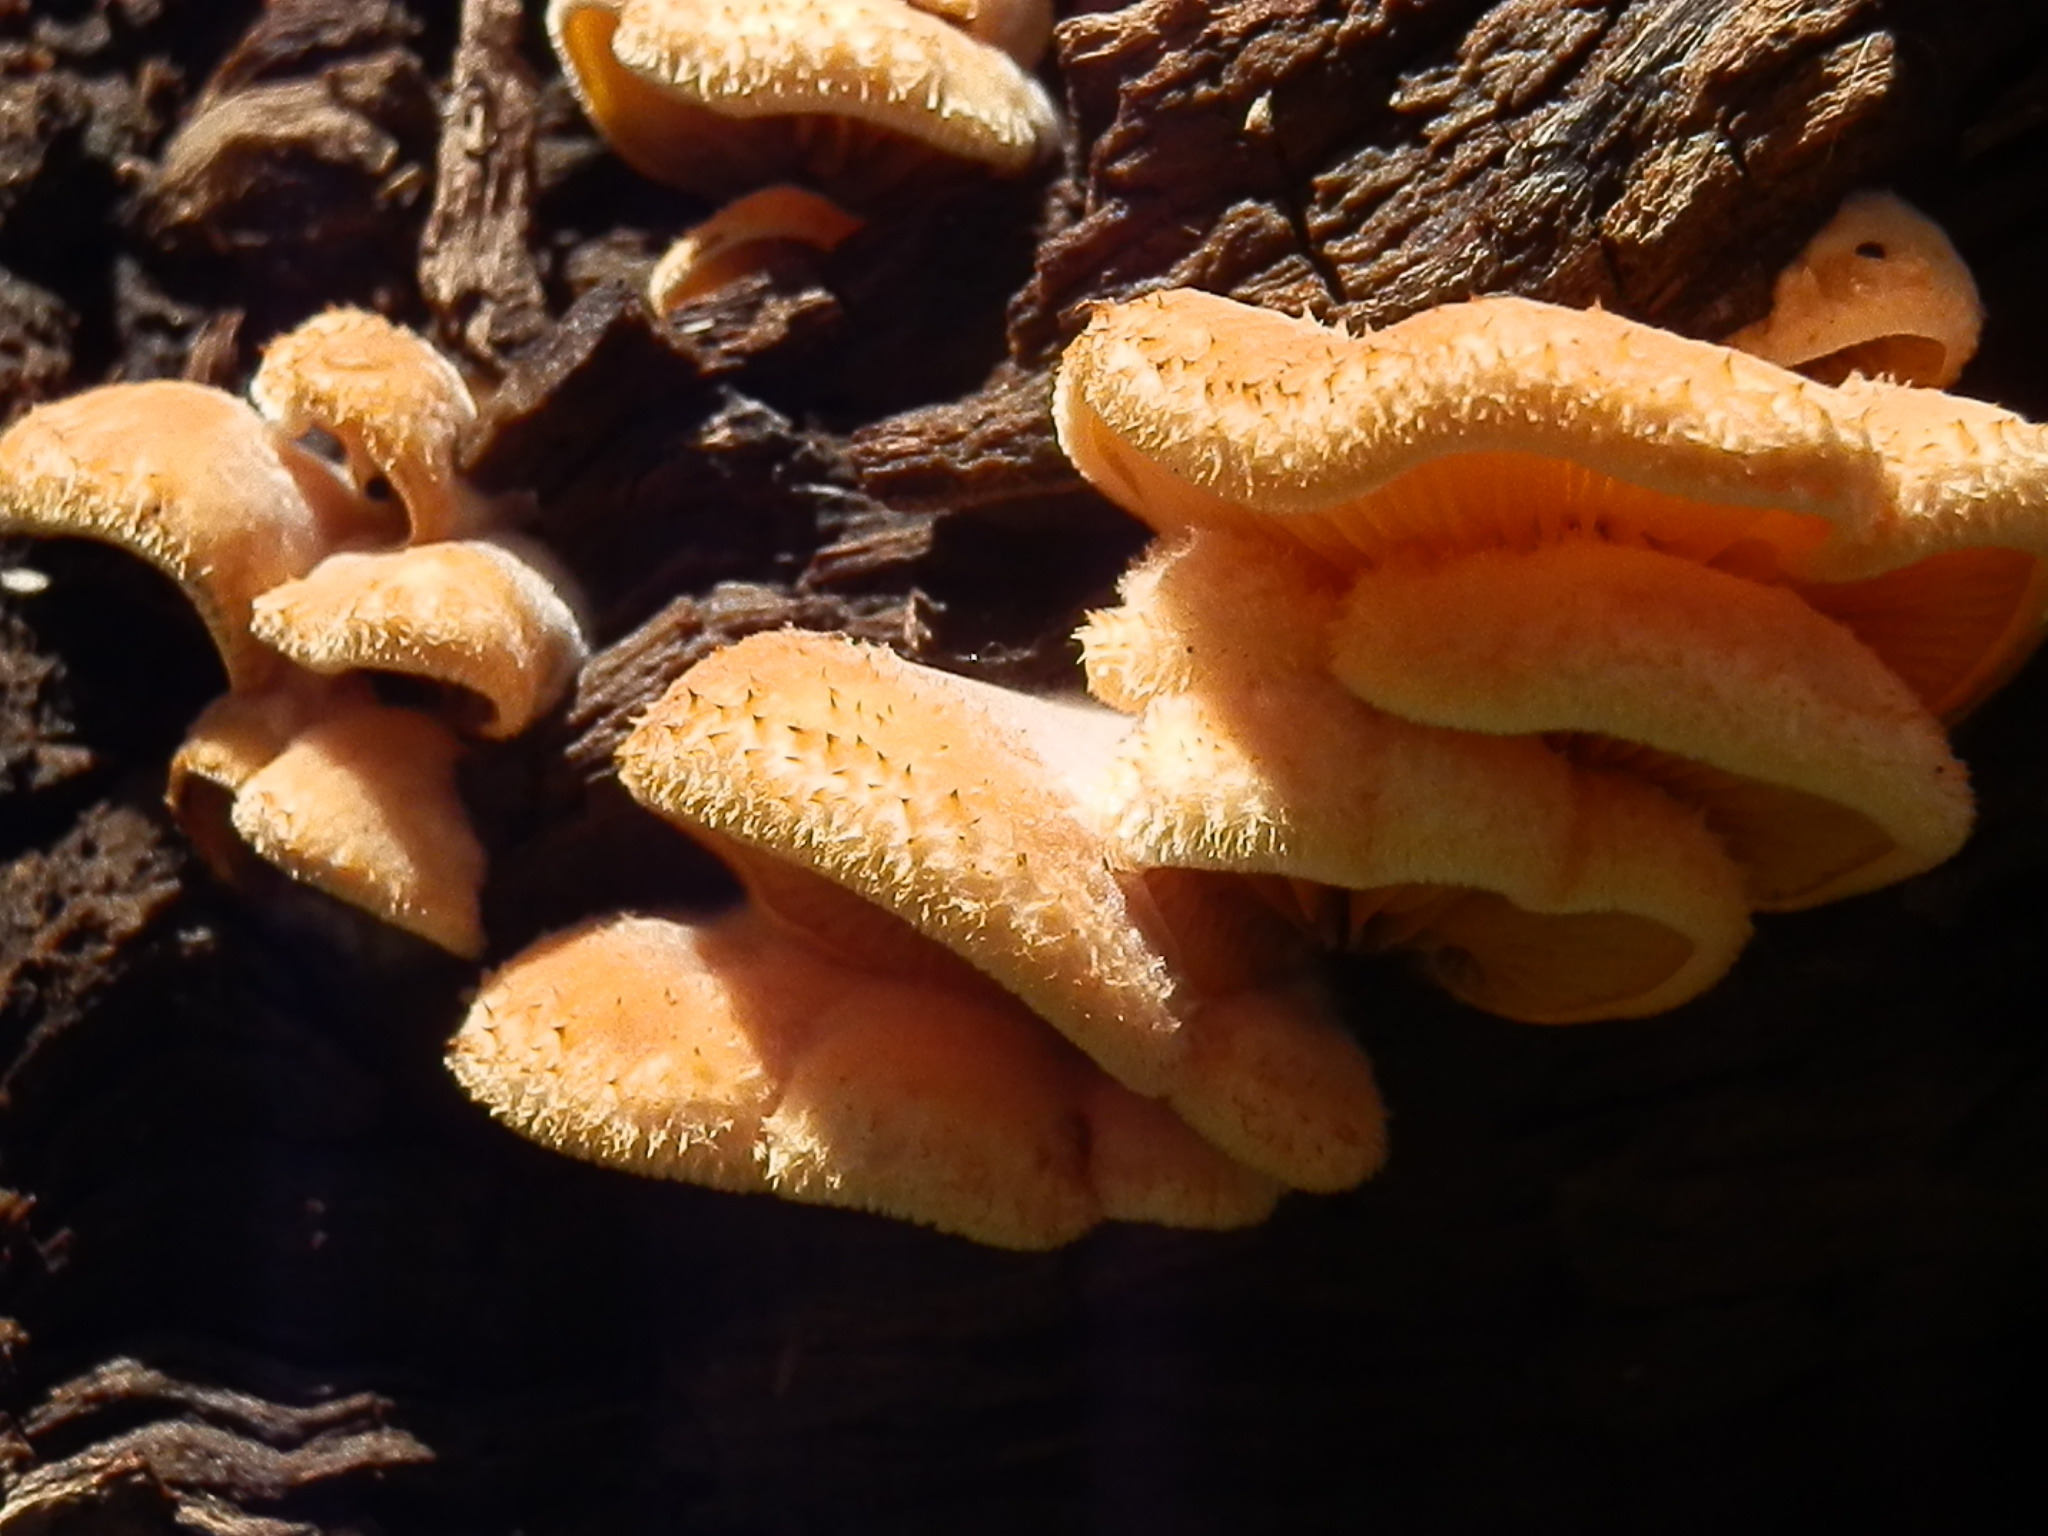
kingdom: Fungi
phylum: Basidiomycota
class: Agaricomycetes
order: Agaricales
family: Phyllotopsidaceae
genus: Phyllotopsis
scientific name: Phyllotopsis nidulans
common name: Orange mock oyster
